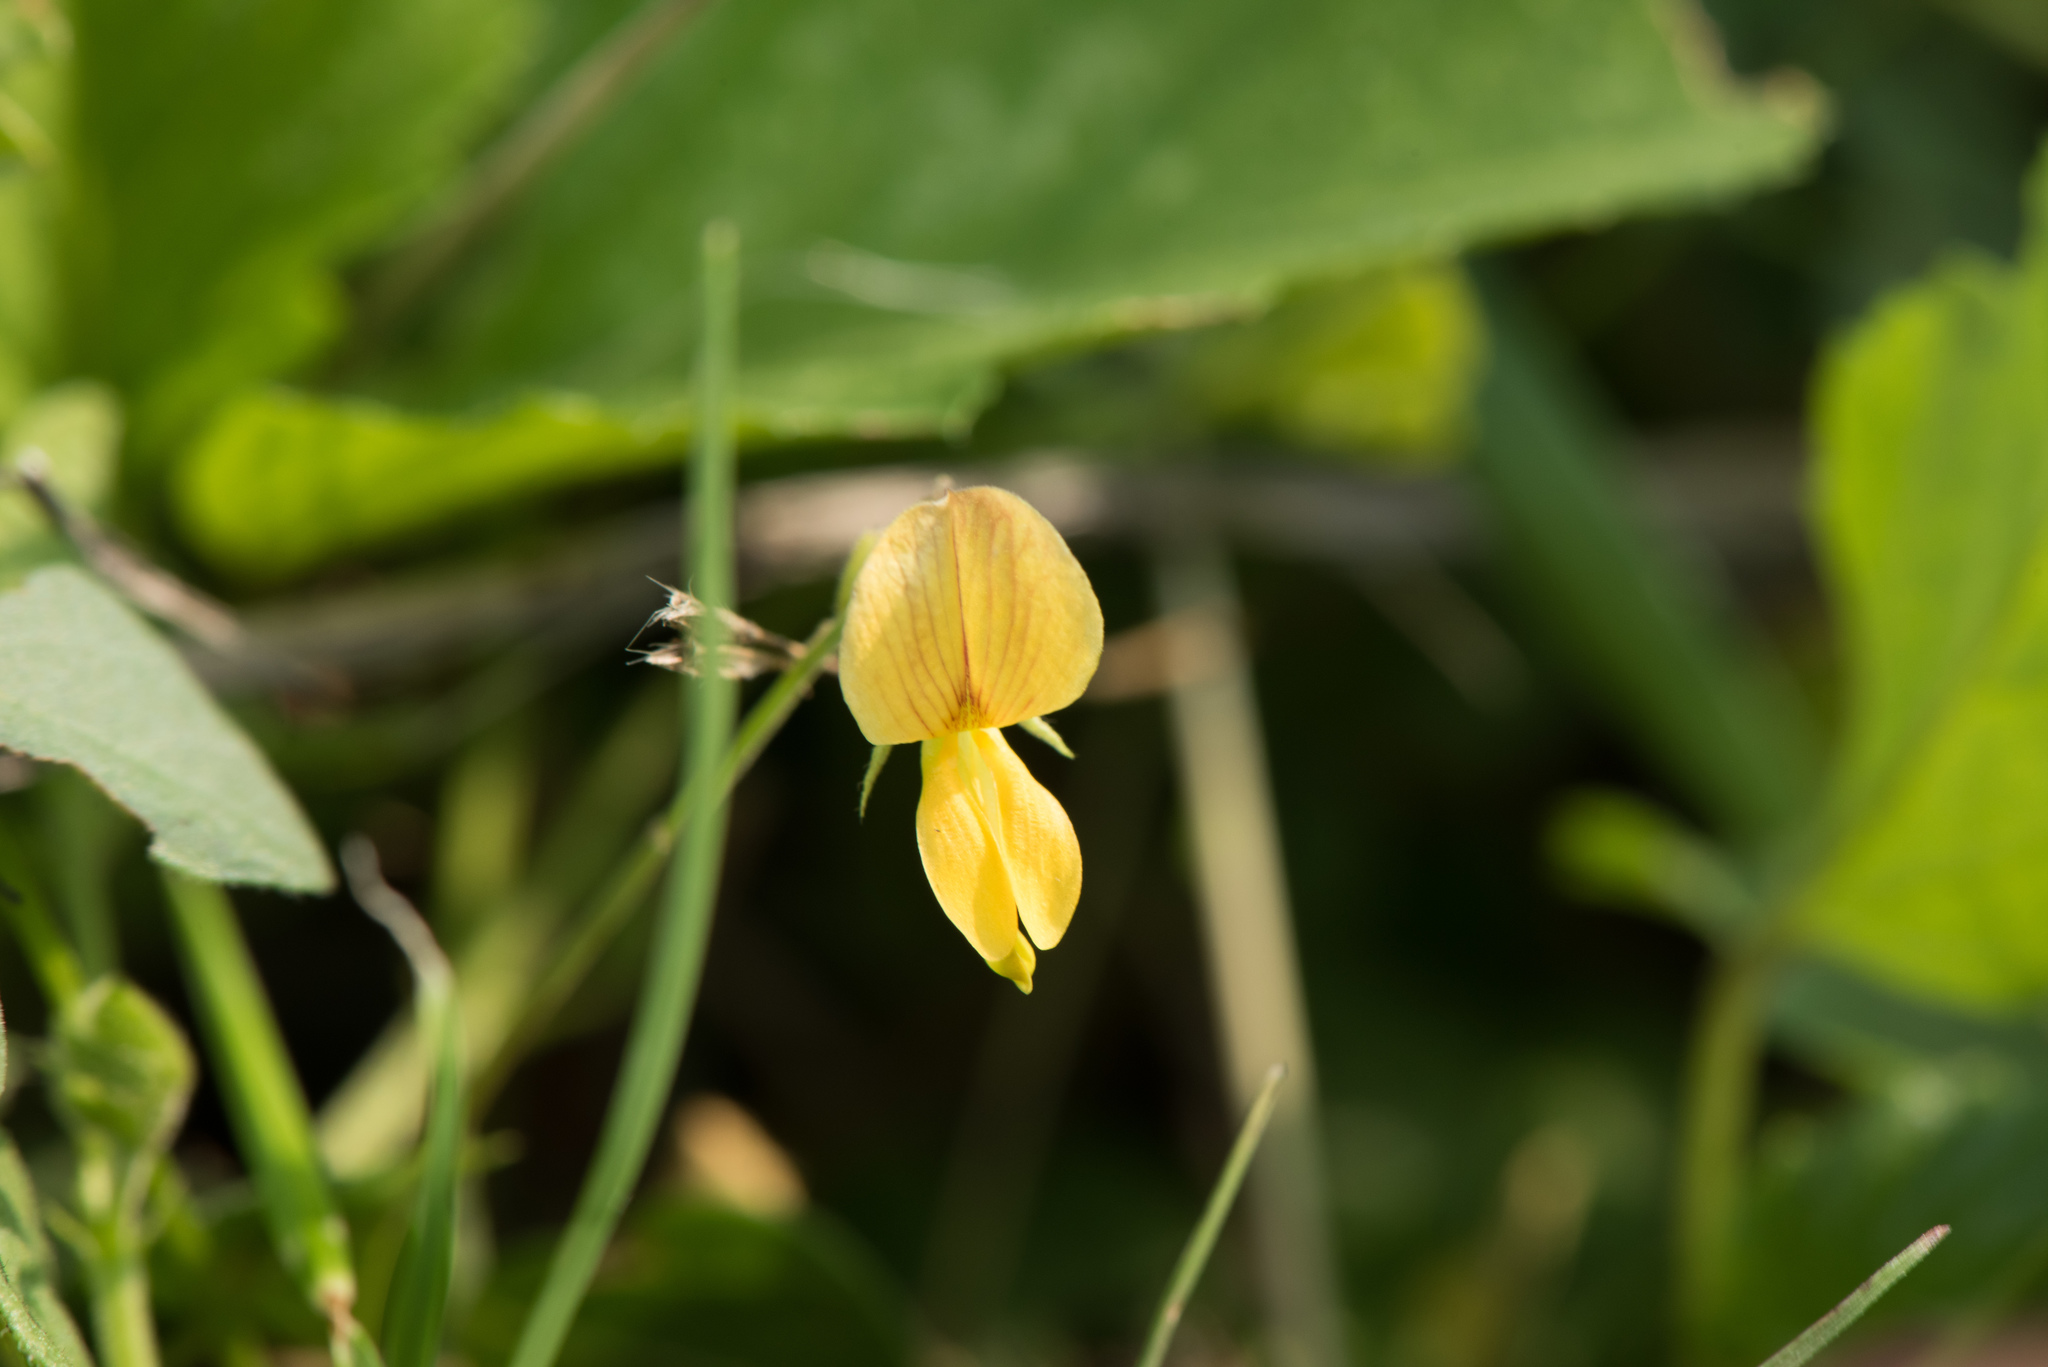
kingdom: Plantae
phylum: Tracheophyta
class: Magnoliopsida
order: Fabales
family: Fabaceae
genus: Rhynchosia
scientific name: Rhynchosia minima
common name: Least snoutbean
